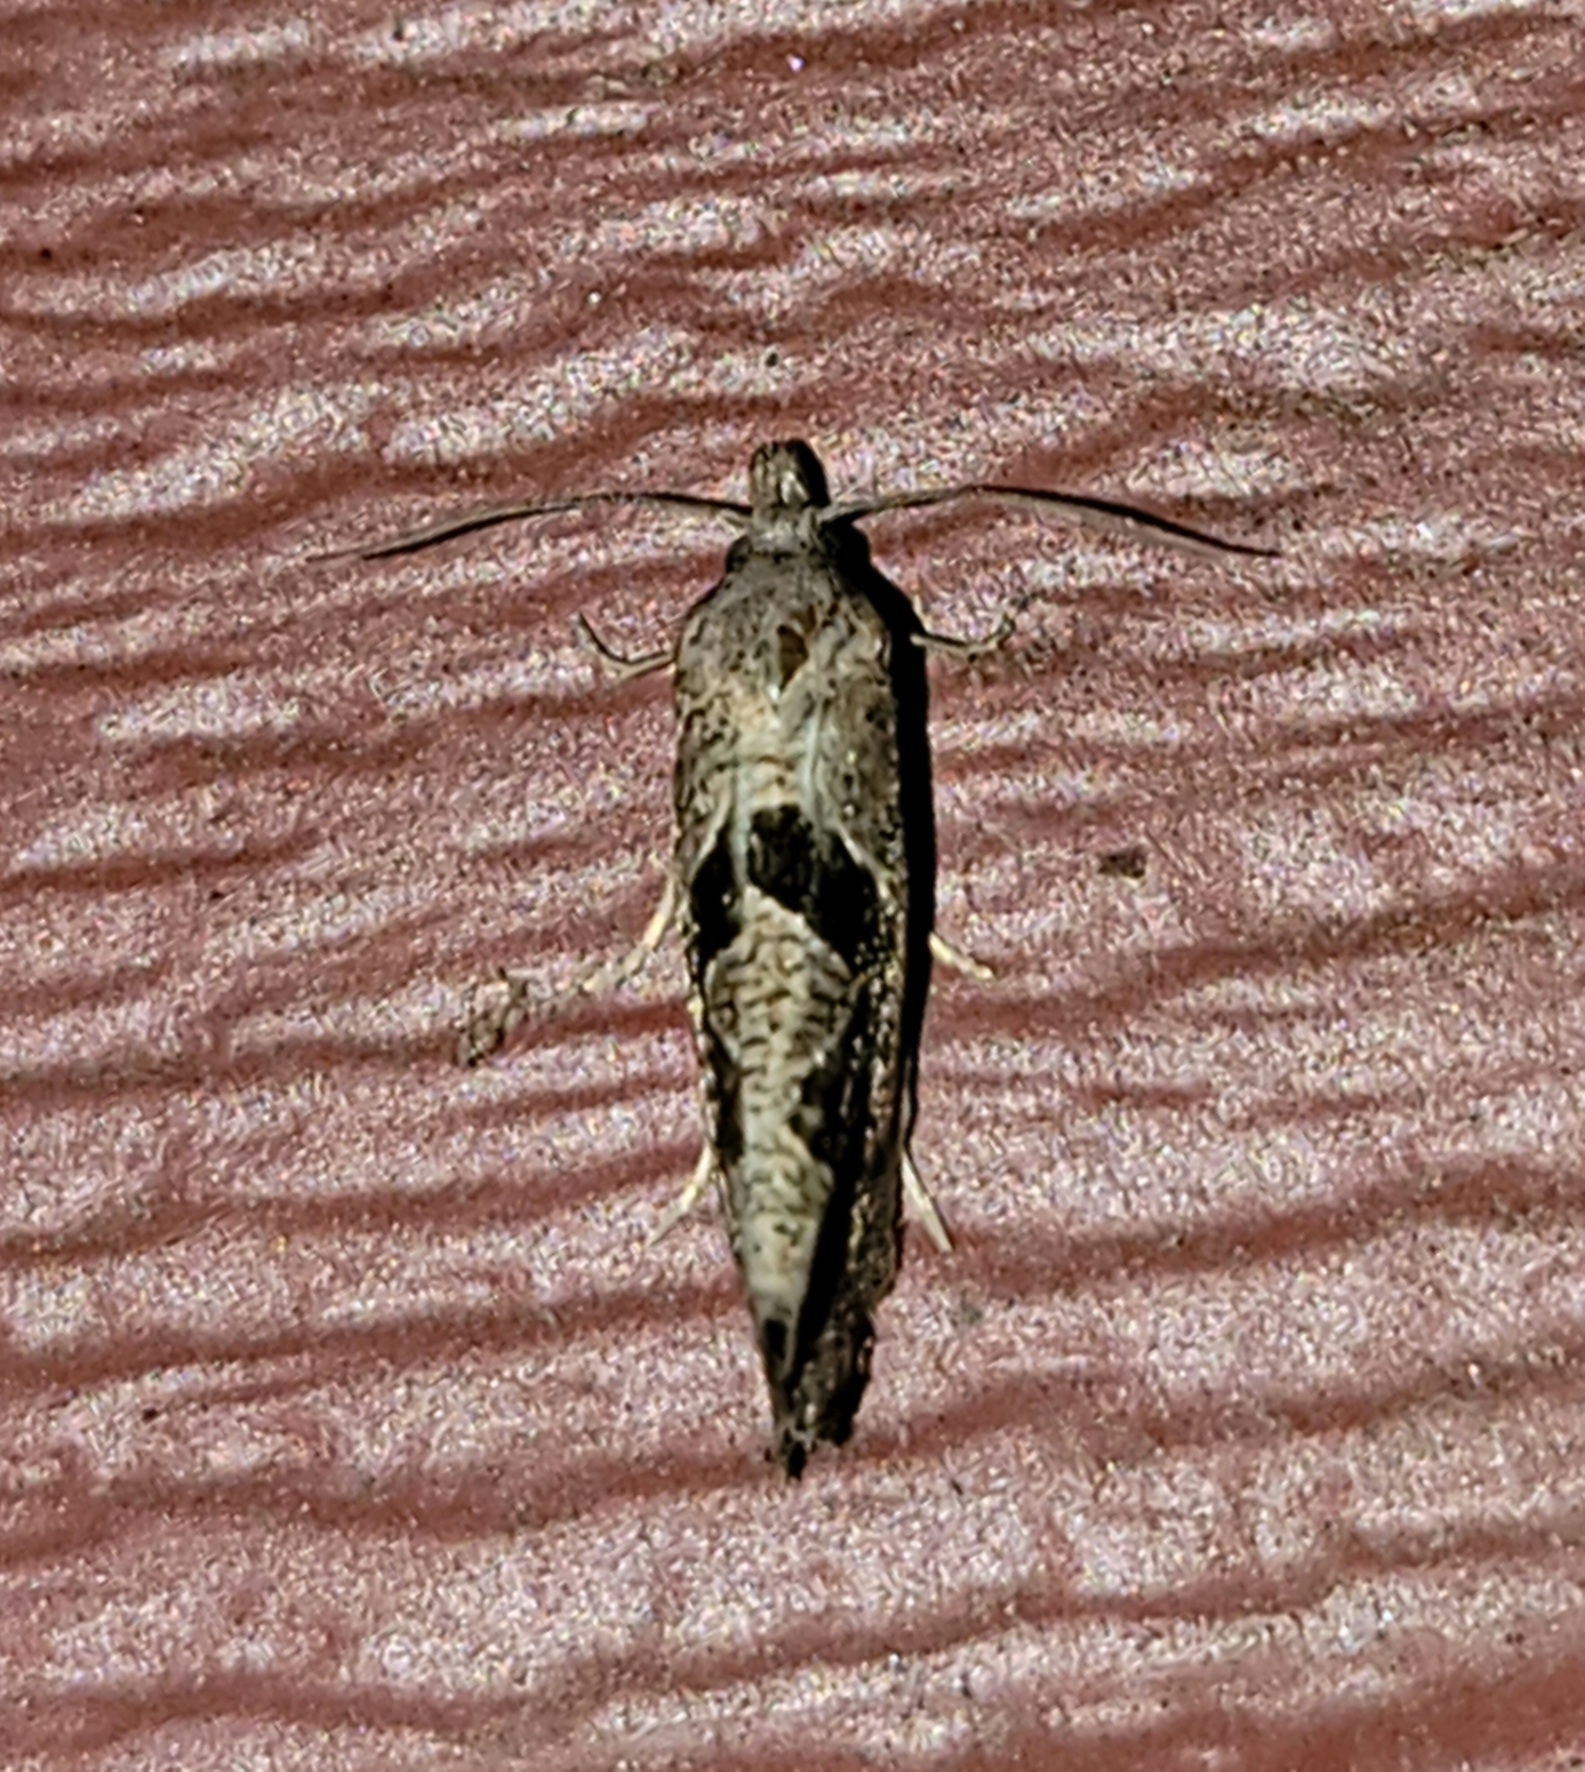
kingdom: Animalia
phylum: Arthropoda
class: Insecta
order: Lepidoptera
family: Tortricidae
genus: Pelochrista
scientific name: Pelochrista similiana
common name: Similar eucosma
